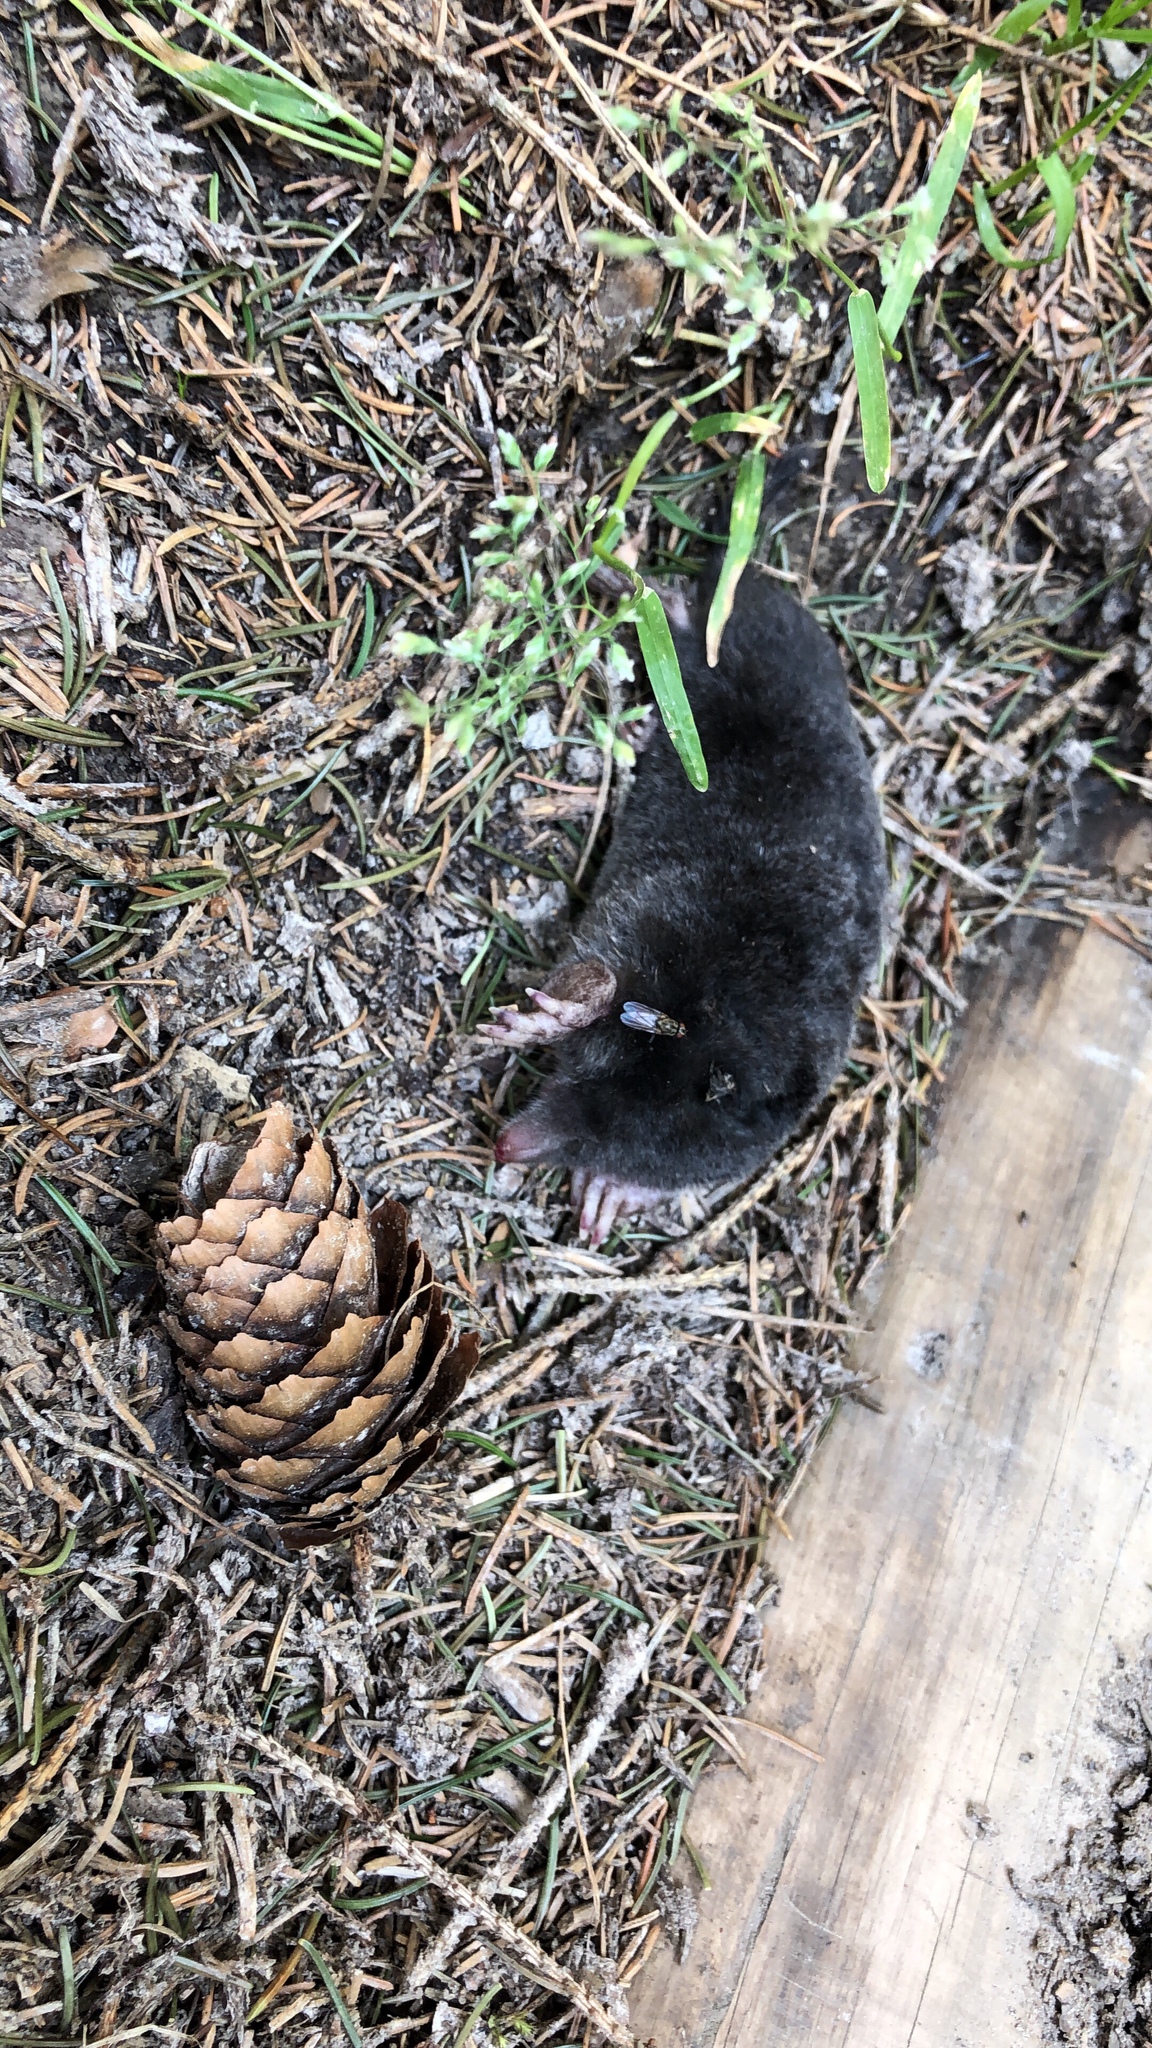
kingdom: Animalia
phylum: Chordata
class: Mammalia
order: Soricomorpha
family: Talpidae
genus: Talpa
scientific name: Talpa europaea
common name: European mole
